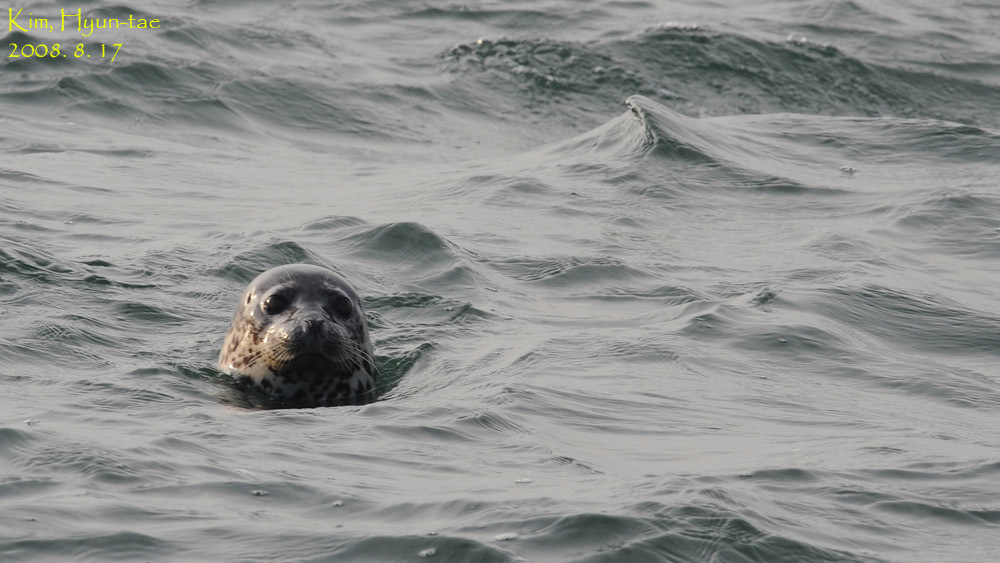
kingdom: Animalia
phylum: Chordata
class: Mammalia
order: Carnivora
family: Phocidae
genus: Phoca
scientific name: Phoca largha
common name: Spotted seal
